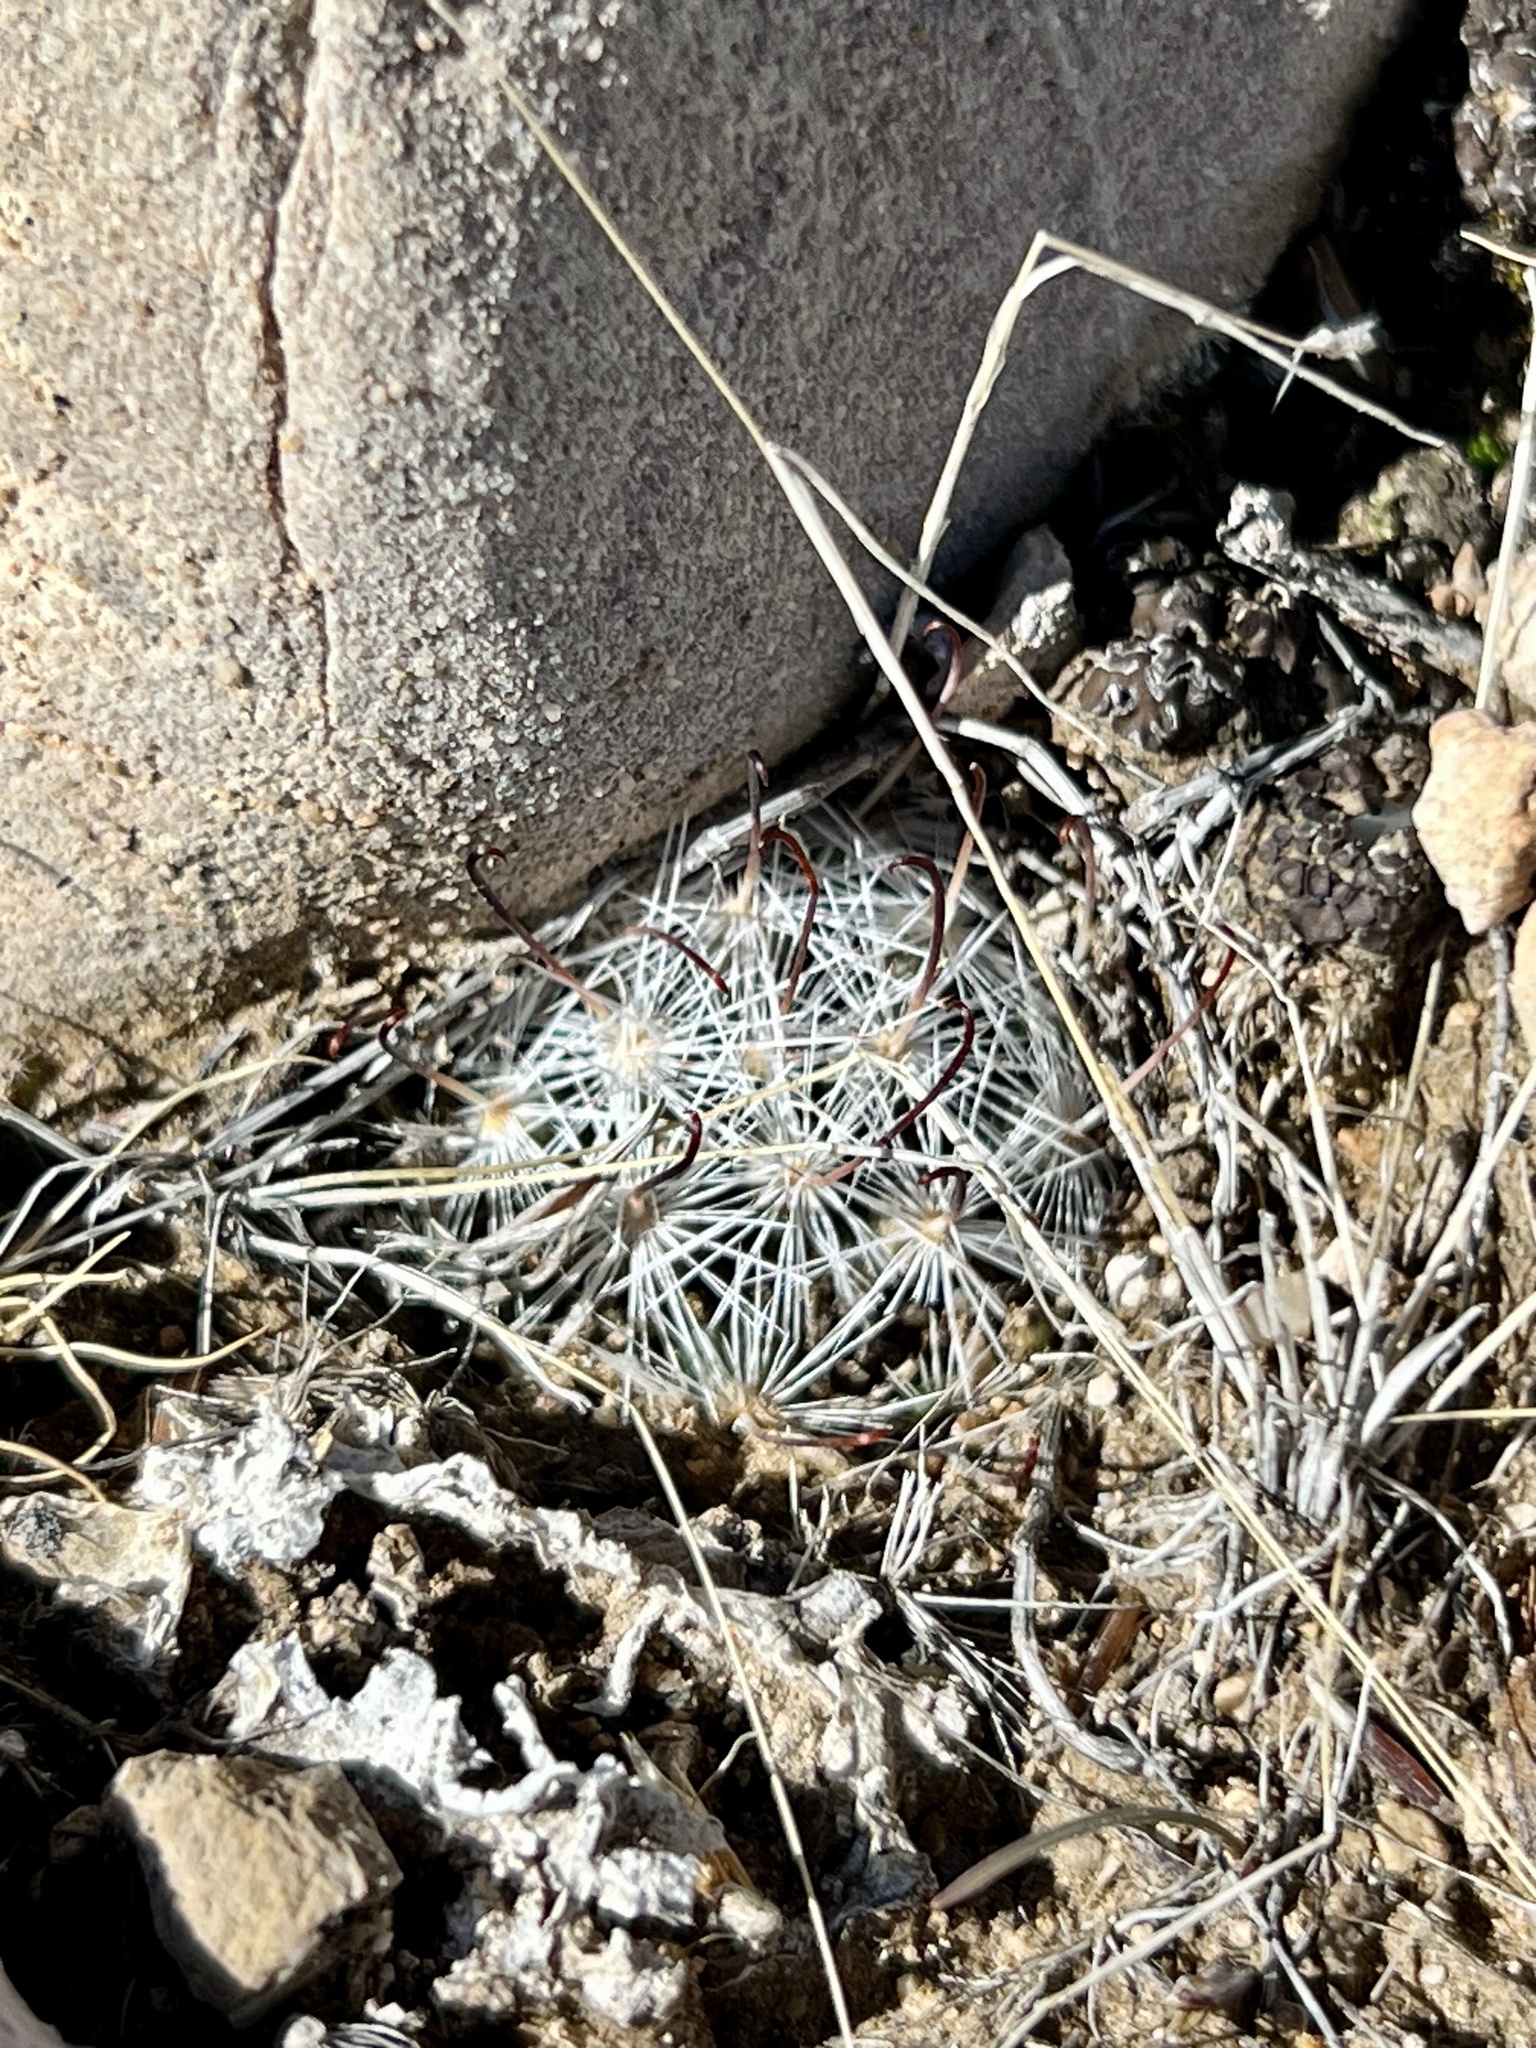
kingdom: Plantae
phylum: Tracheophyta
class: Magnoliopsida
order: Caryophyllales
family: Cactaceae
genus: Cochemiea
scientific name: Cochemiea tetrancistra
